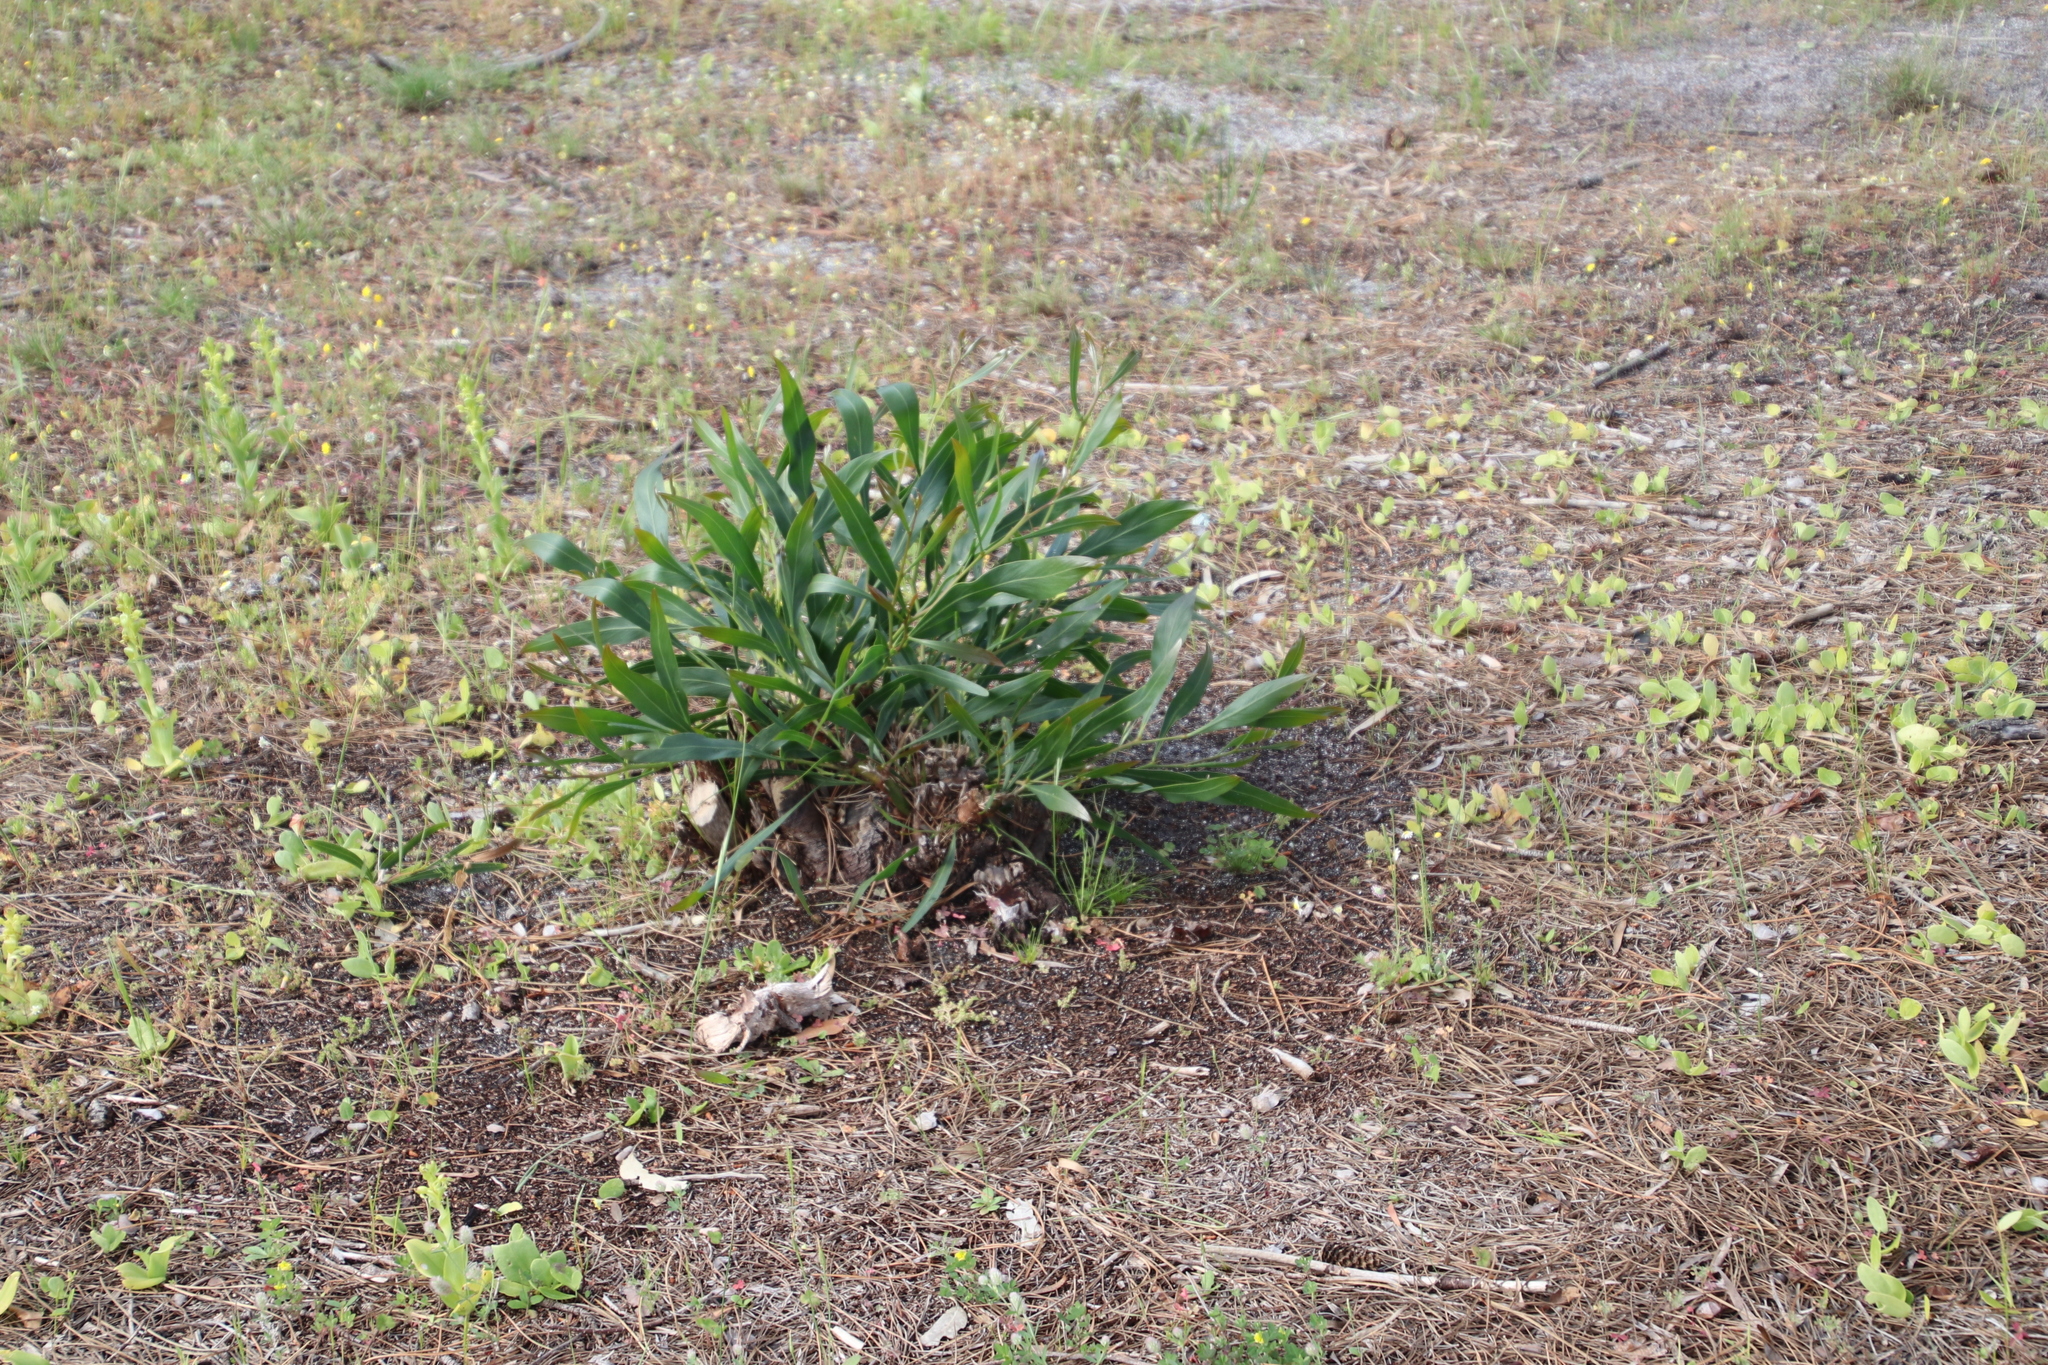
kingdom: Plantae
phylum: Tracheophyta
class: Magnoliopsida
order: Fabales
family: Fabaceae
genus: Acacia
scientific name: Acacia saligna
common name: Orange wattle
